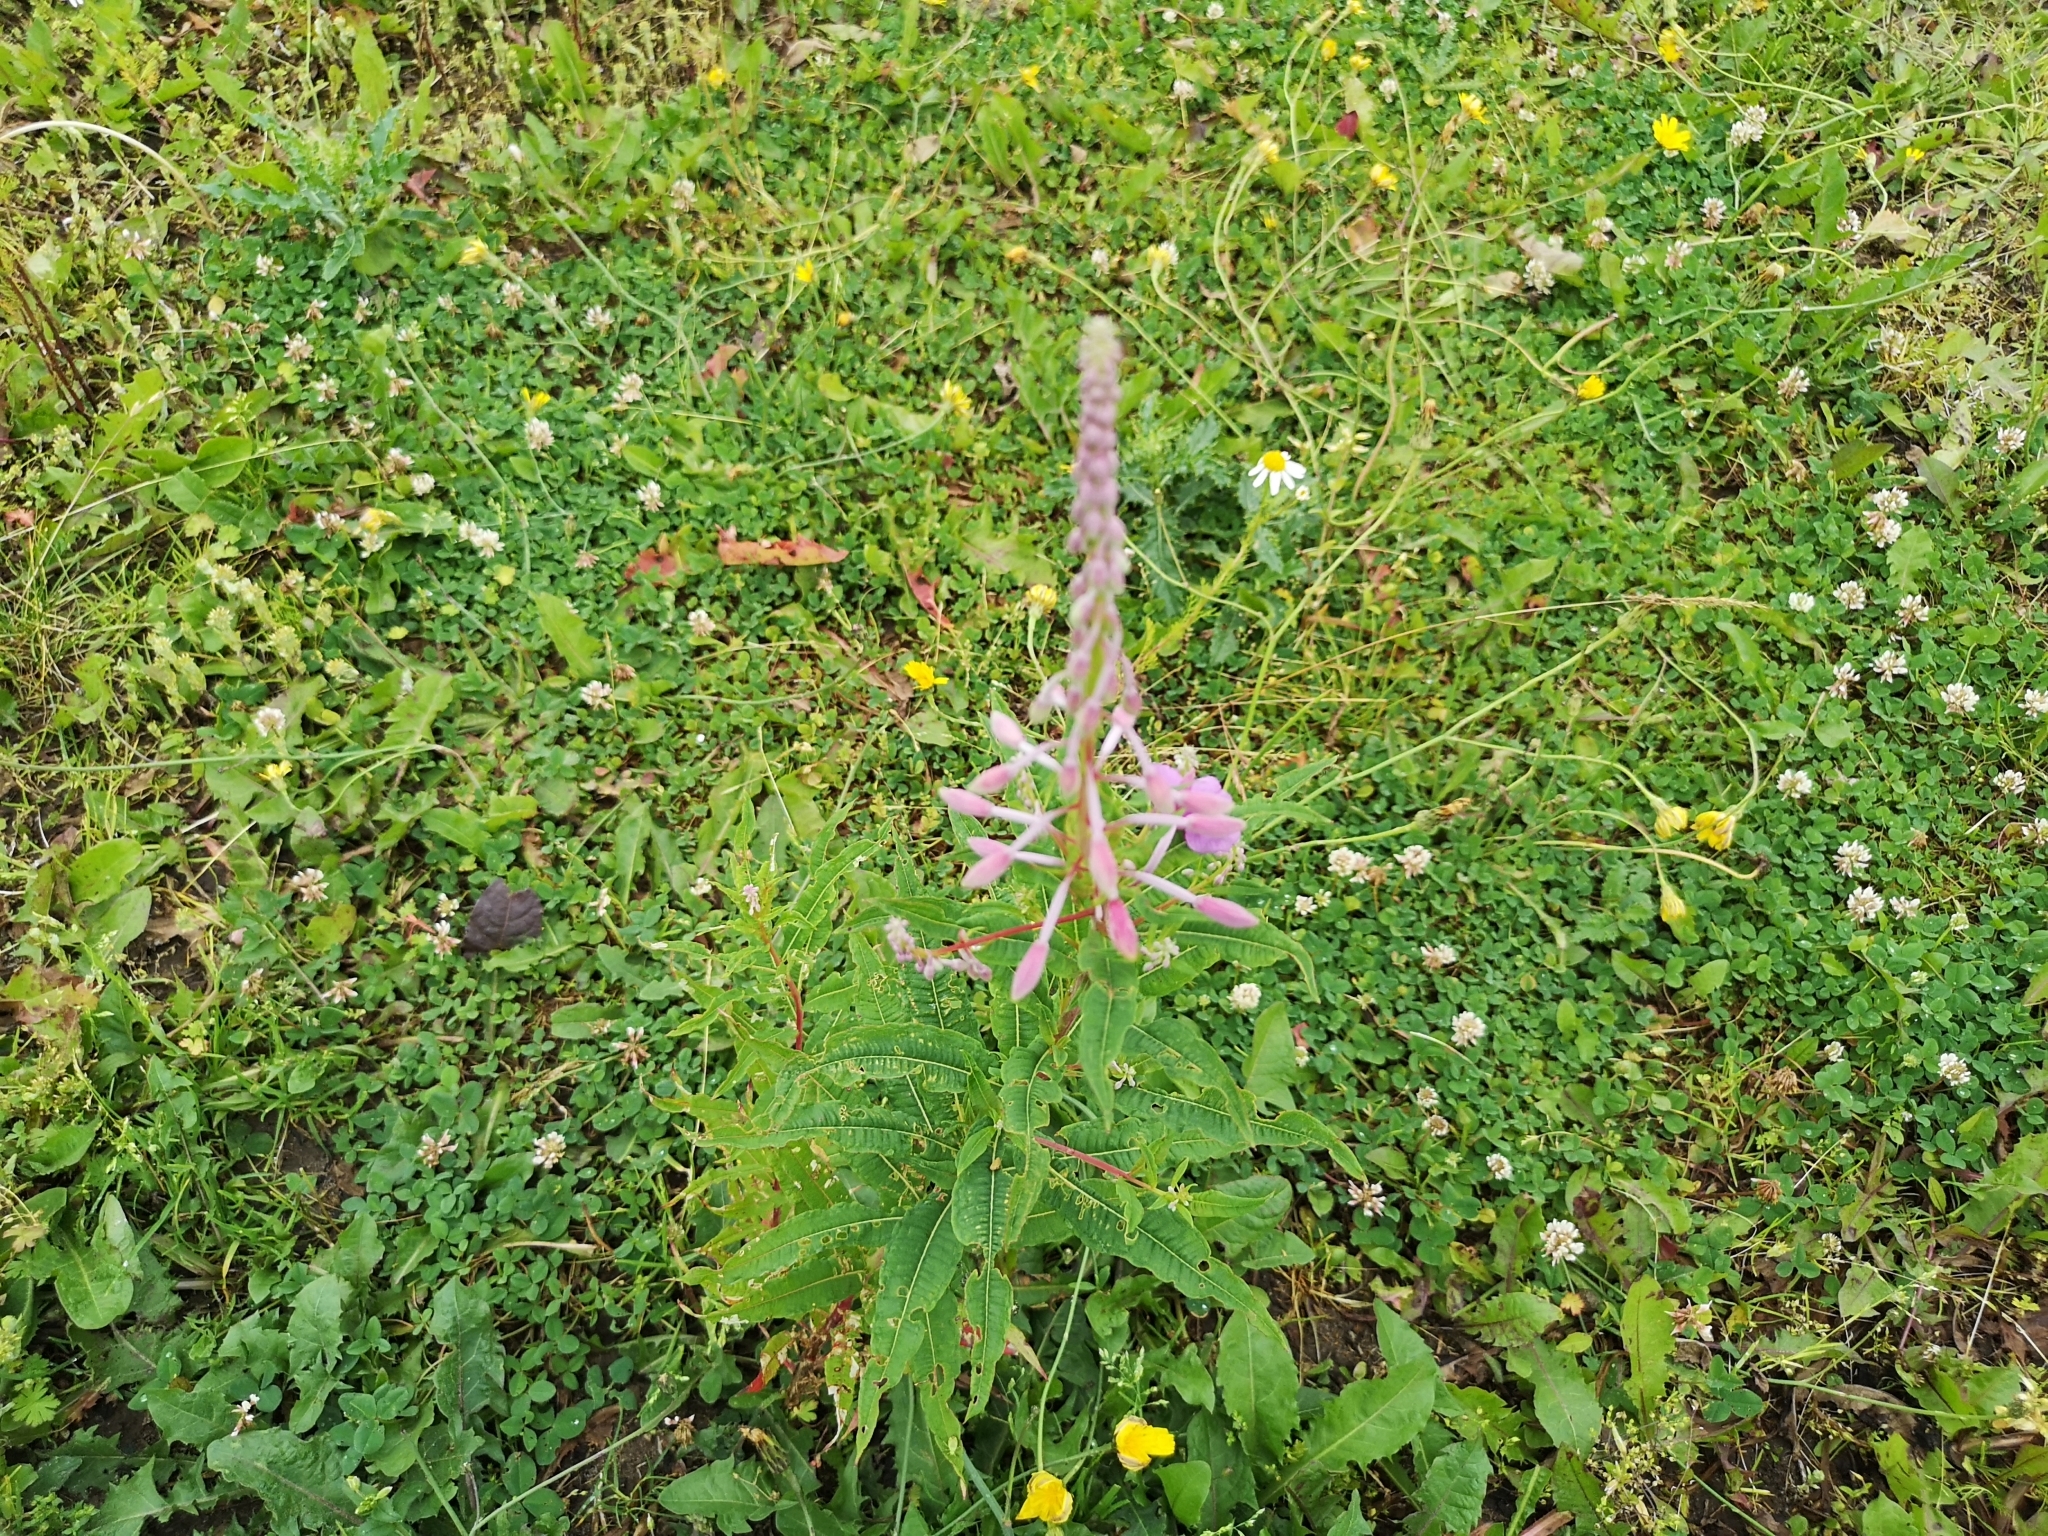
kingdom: Plantae
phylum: Tracheophyta
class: Magnoliopsida
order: Myrtales
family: Onagraceae
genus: Chamaenerion
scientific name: Chamaenerion angustifolium
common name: Fireweed
